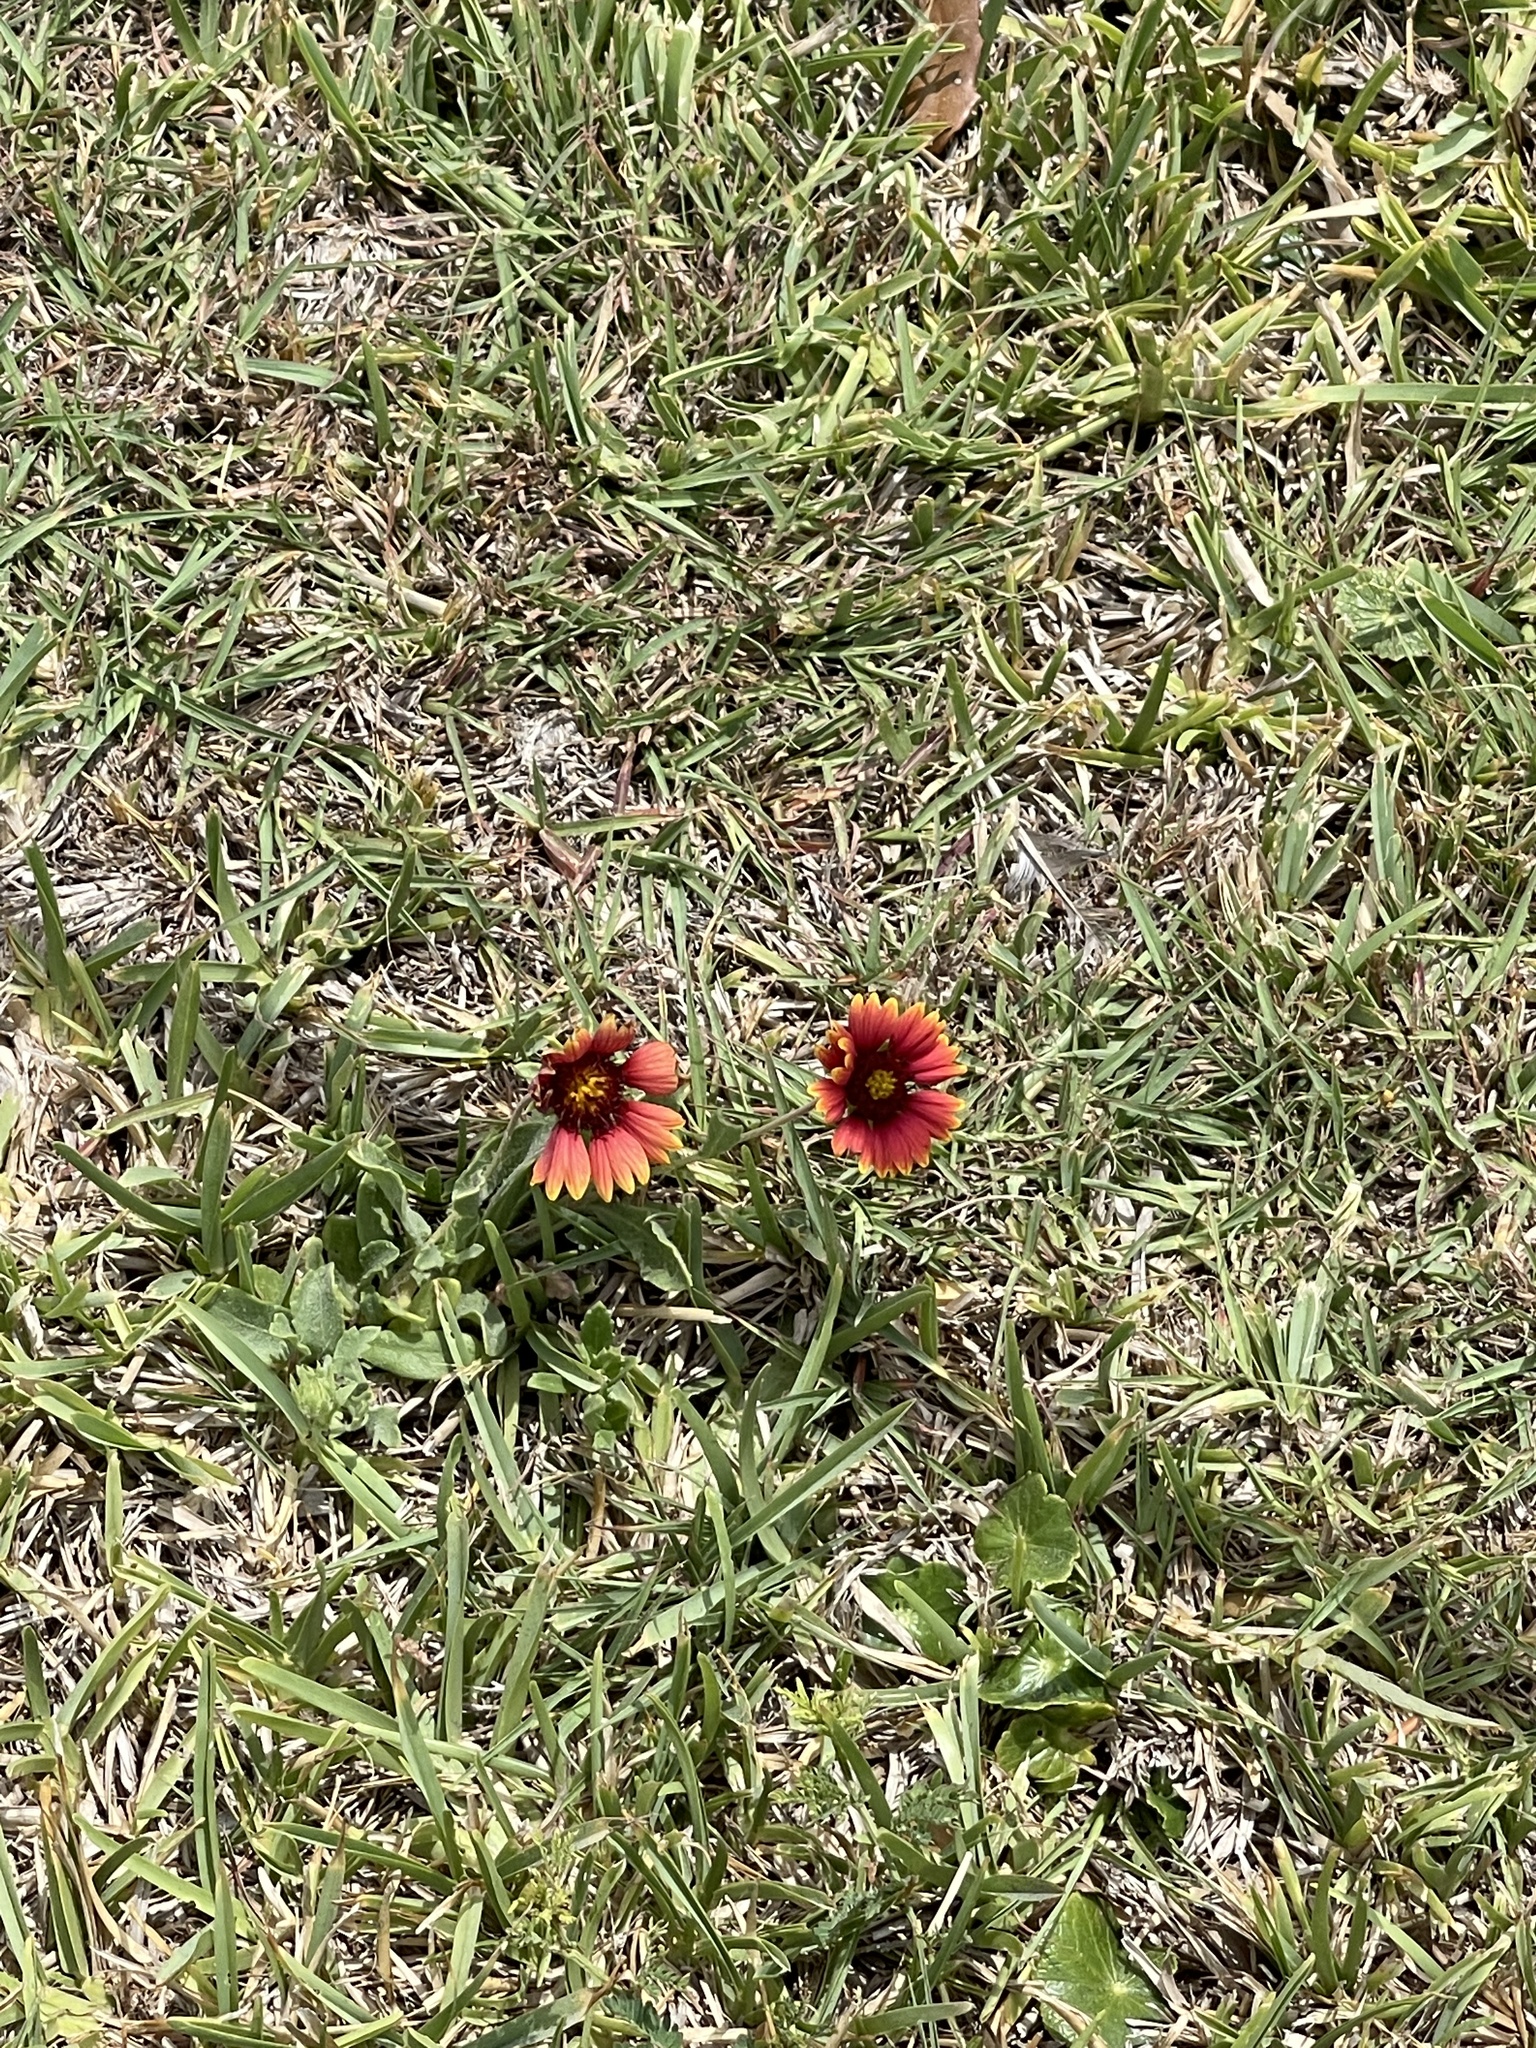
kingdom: Plantae
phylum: Tracheophyta
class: Magnoliopsida
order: Asterales
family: Asteraceae
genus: Gaillardia
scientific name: Gaillardia pulchella
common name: Firewheel
